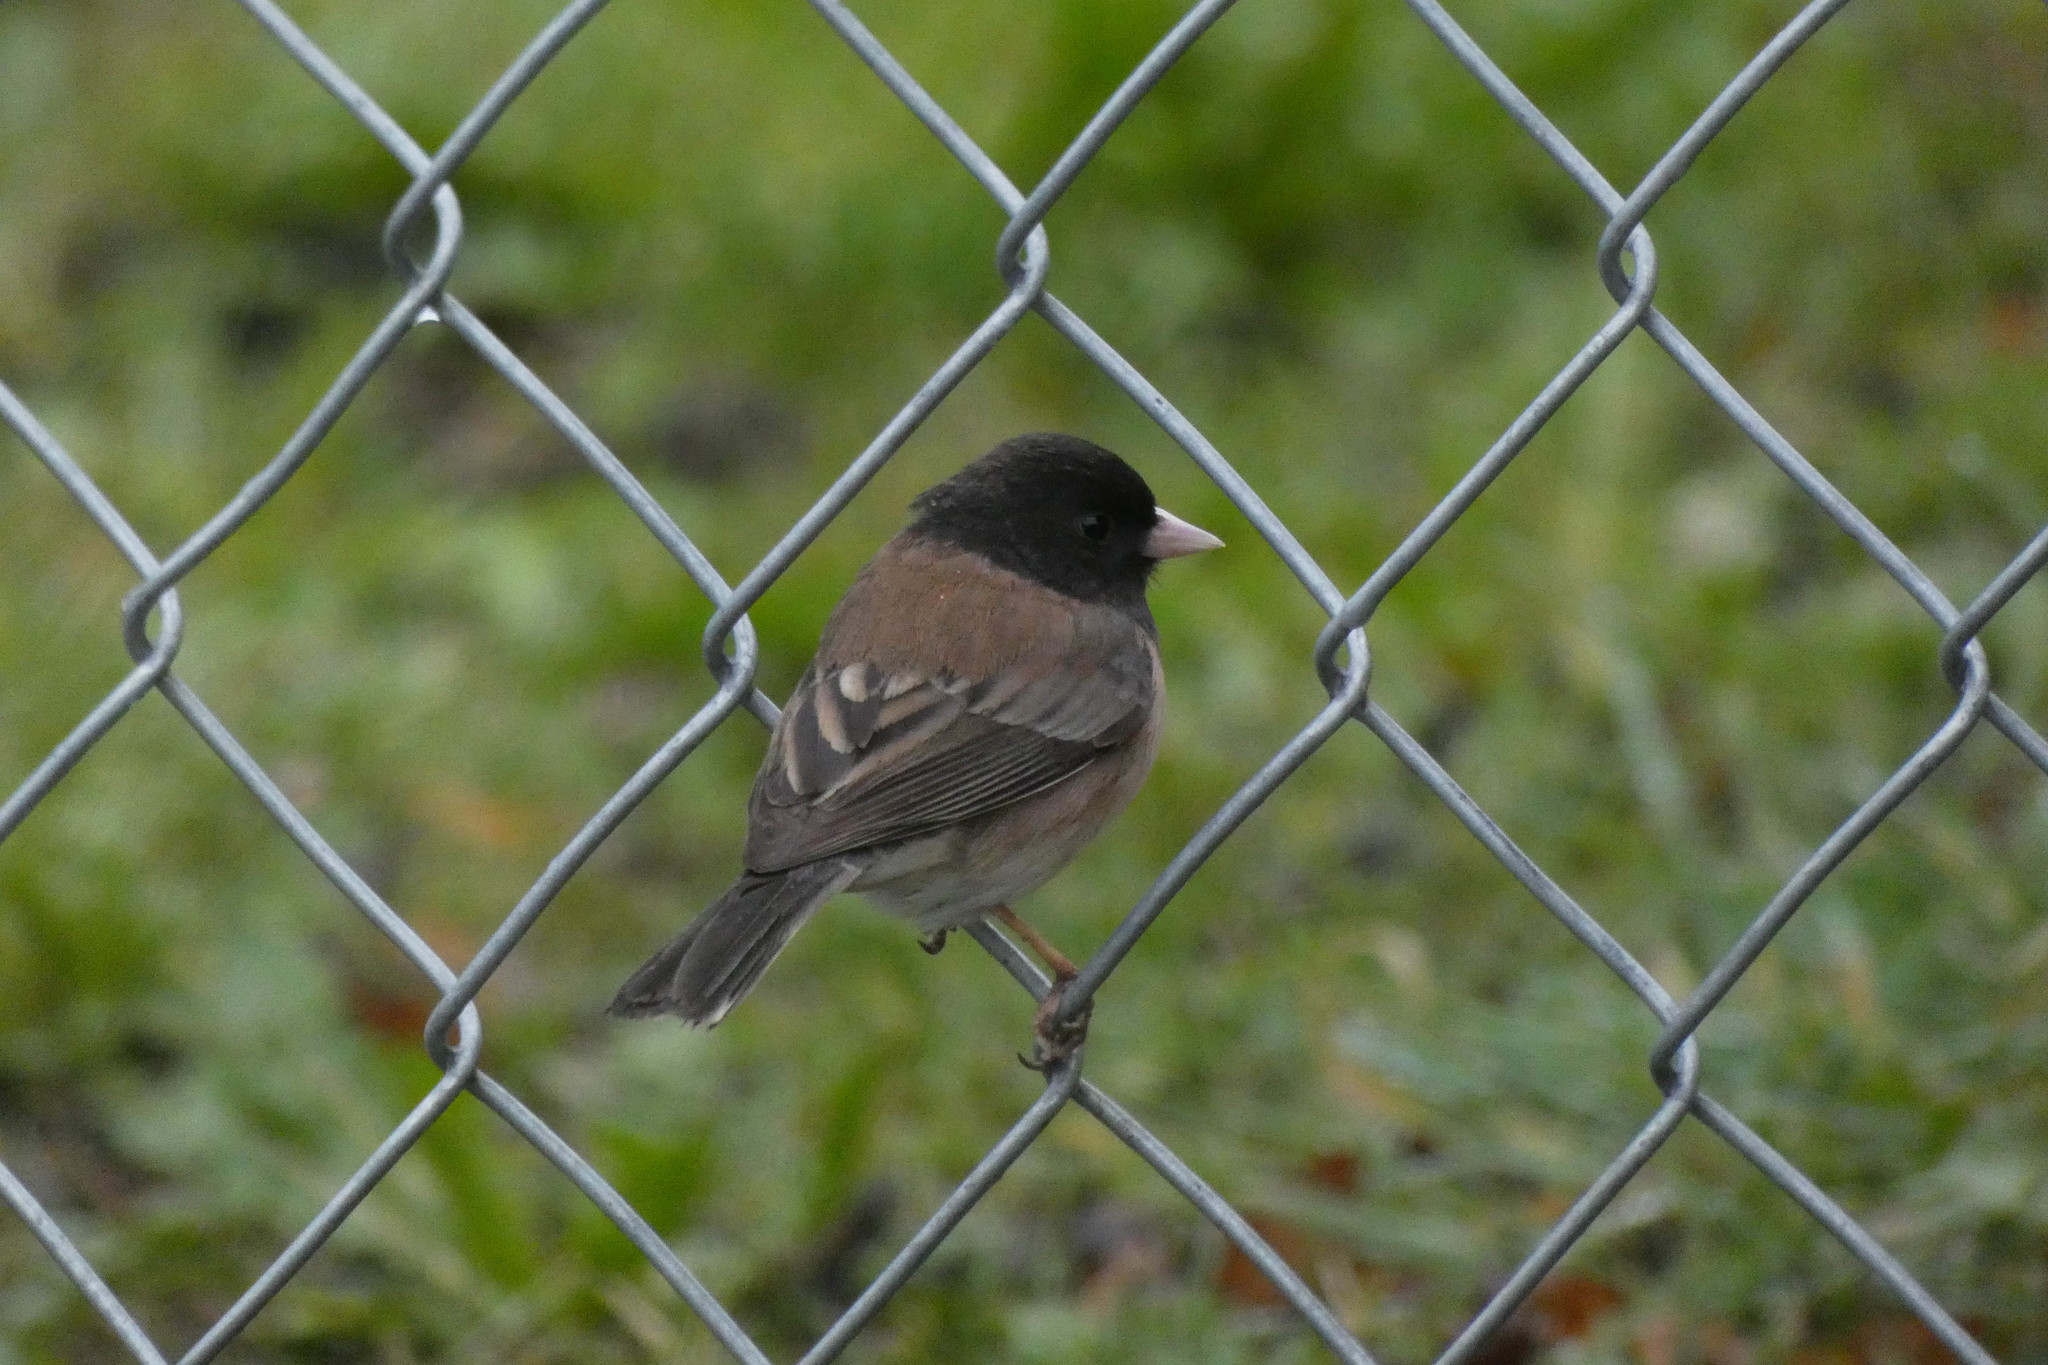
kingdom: Animalia
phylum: Chordata
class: Aves
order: Passeriformes
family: Passerellidae
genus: Junco
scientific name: Junco hyemalis
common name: Dark-eyed junco
